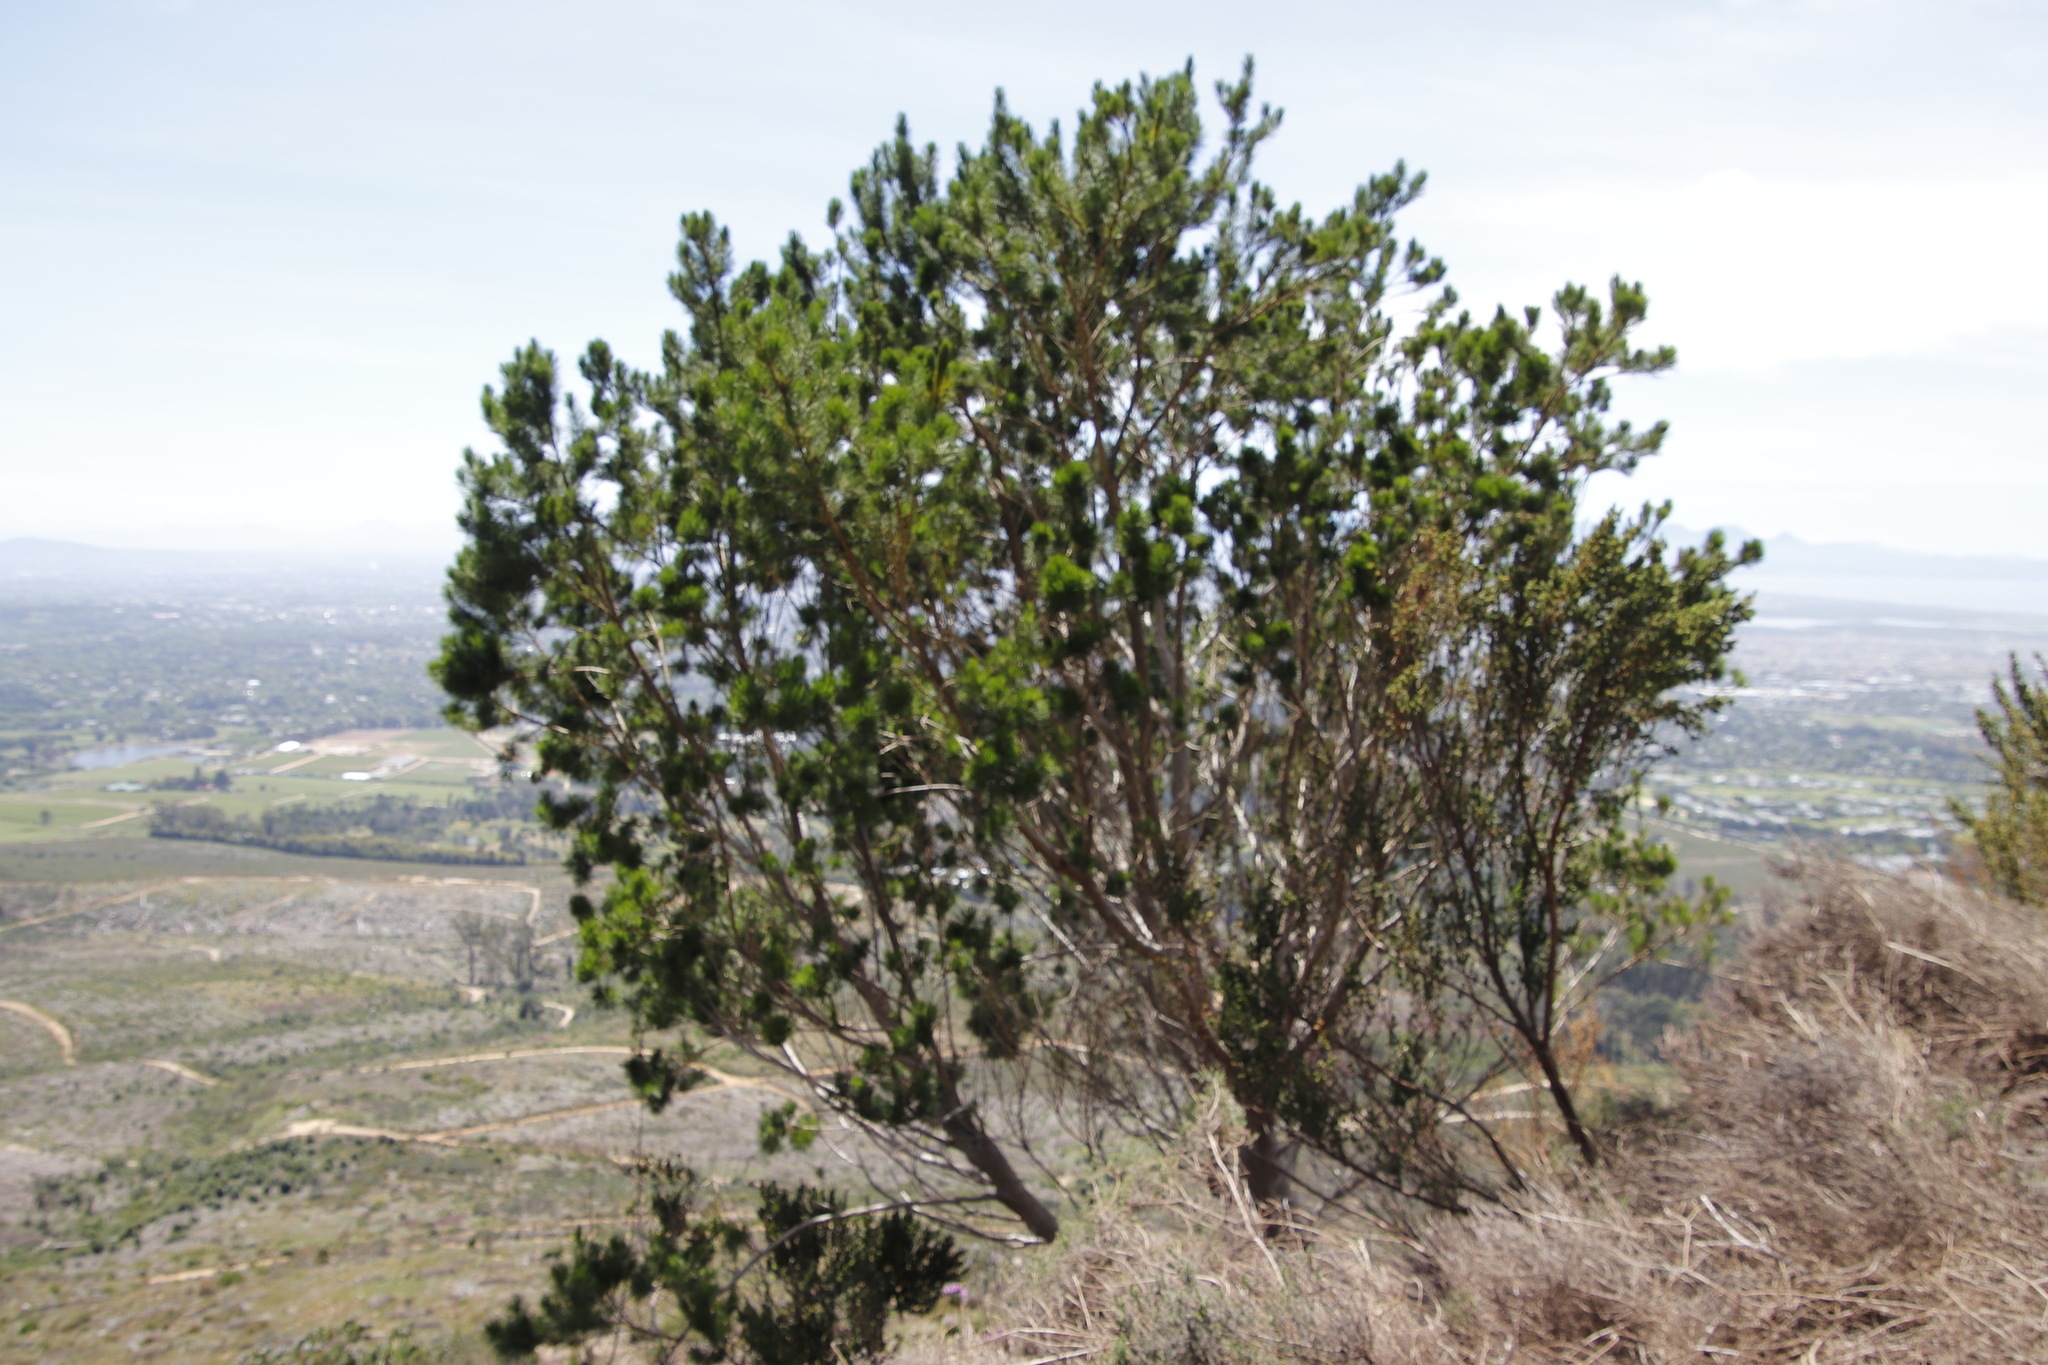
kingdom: Plantae
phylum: Tracheophyta
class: Magnoliopsida
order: Fabales
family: Fabaceae
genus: Psoralea
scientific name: Psoralea pinnata
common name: African scurfpea
